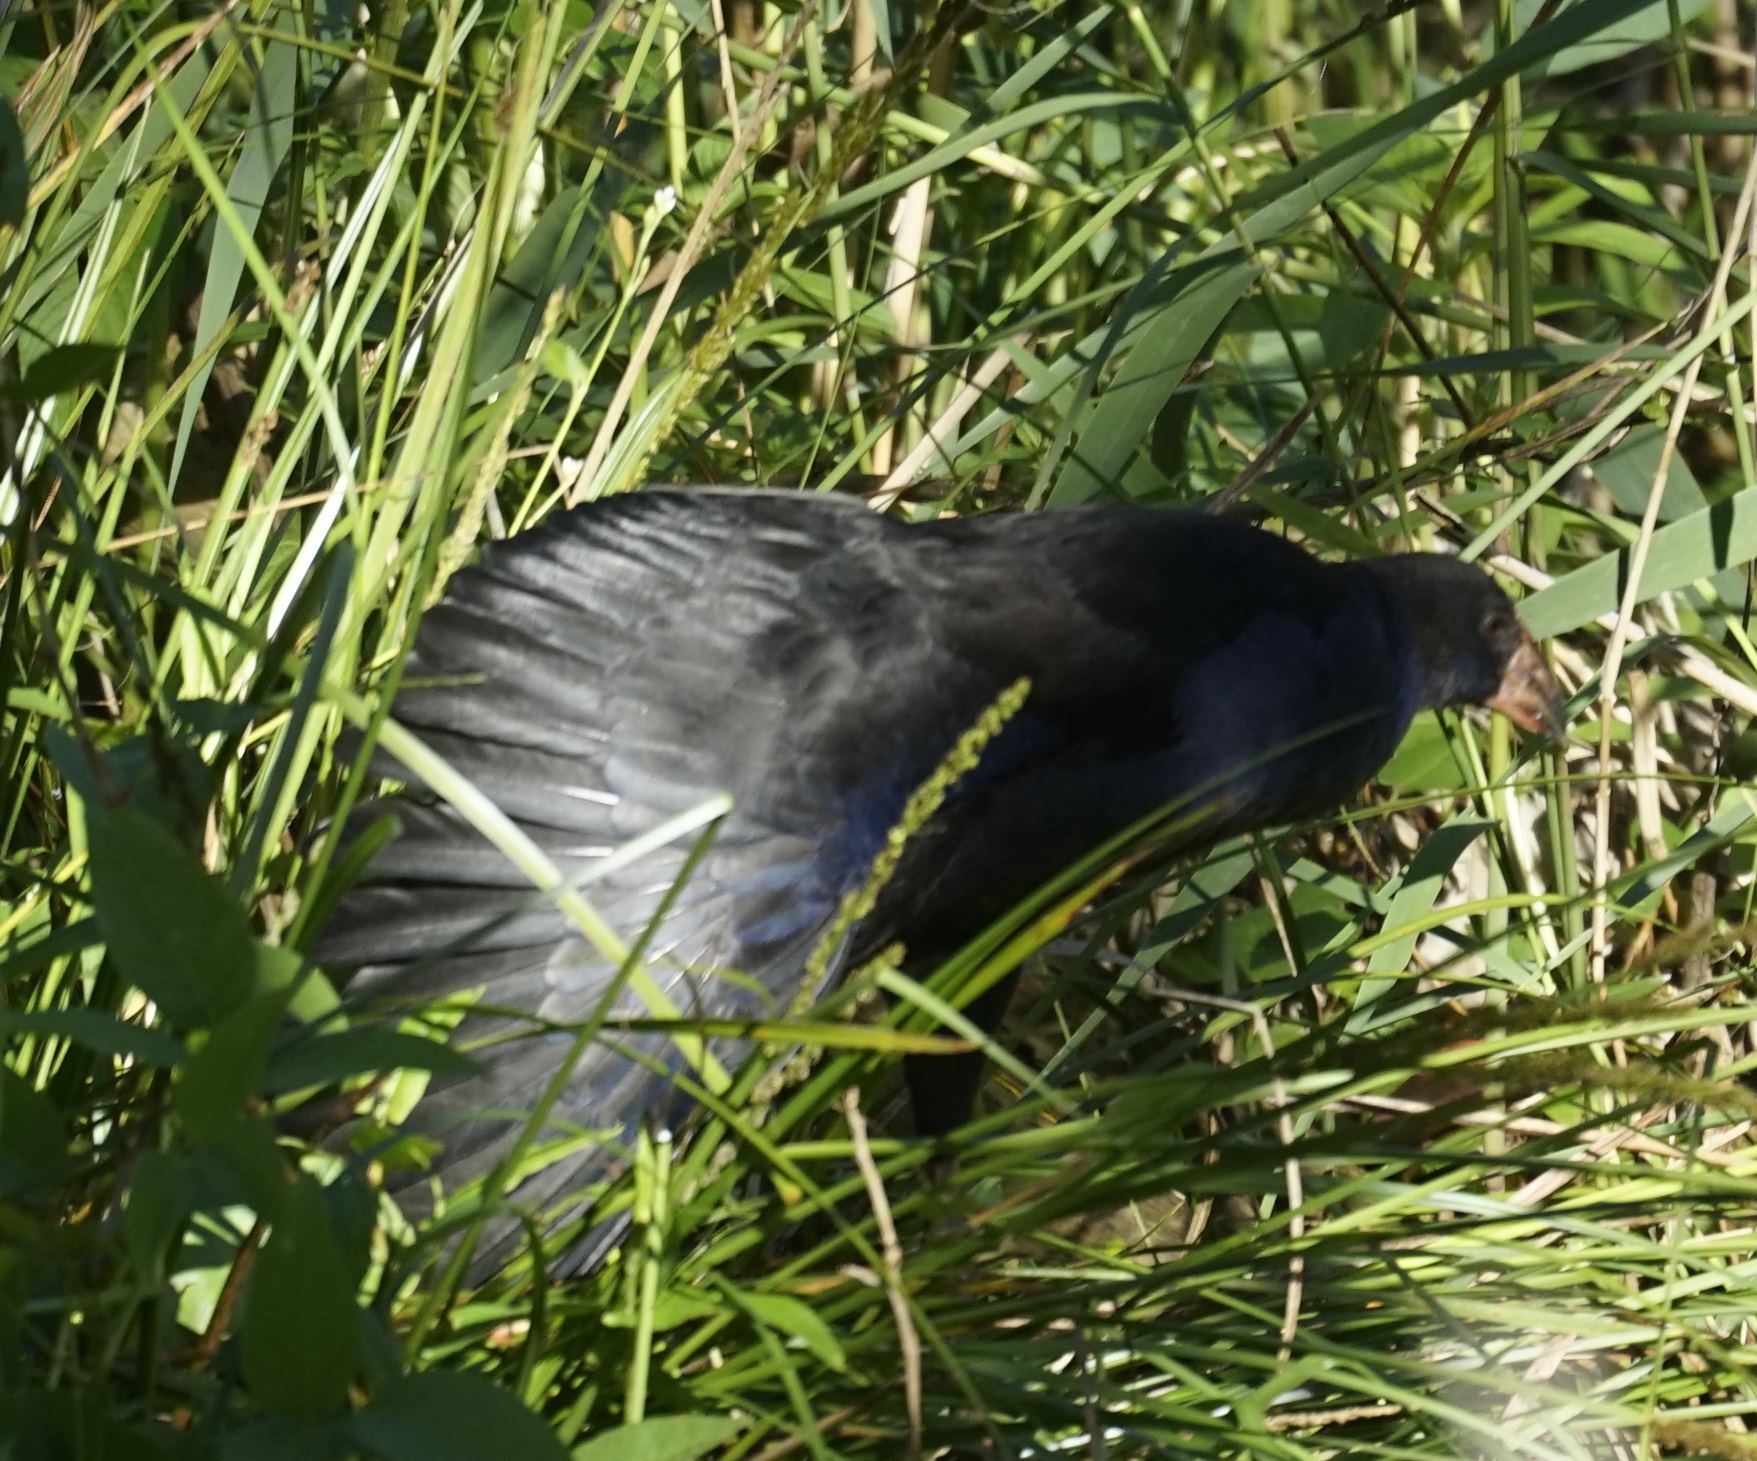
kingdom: Animalia
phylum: Chordata
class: Aves
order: Gruiformes
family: Rallidae
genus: Porphyrio
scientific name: Porphyrio melanotus
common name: Australasian swamphen
